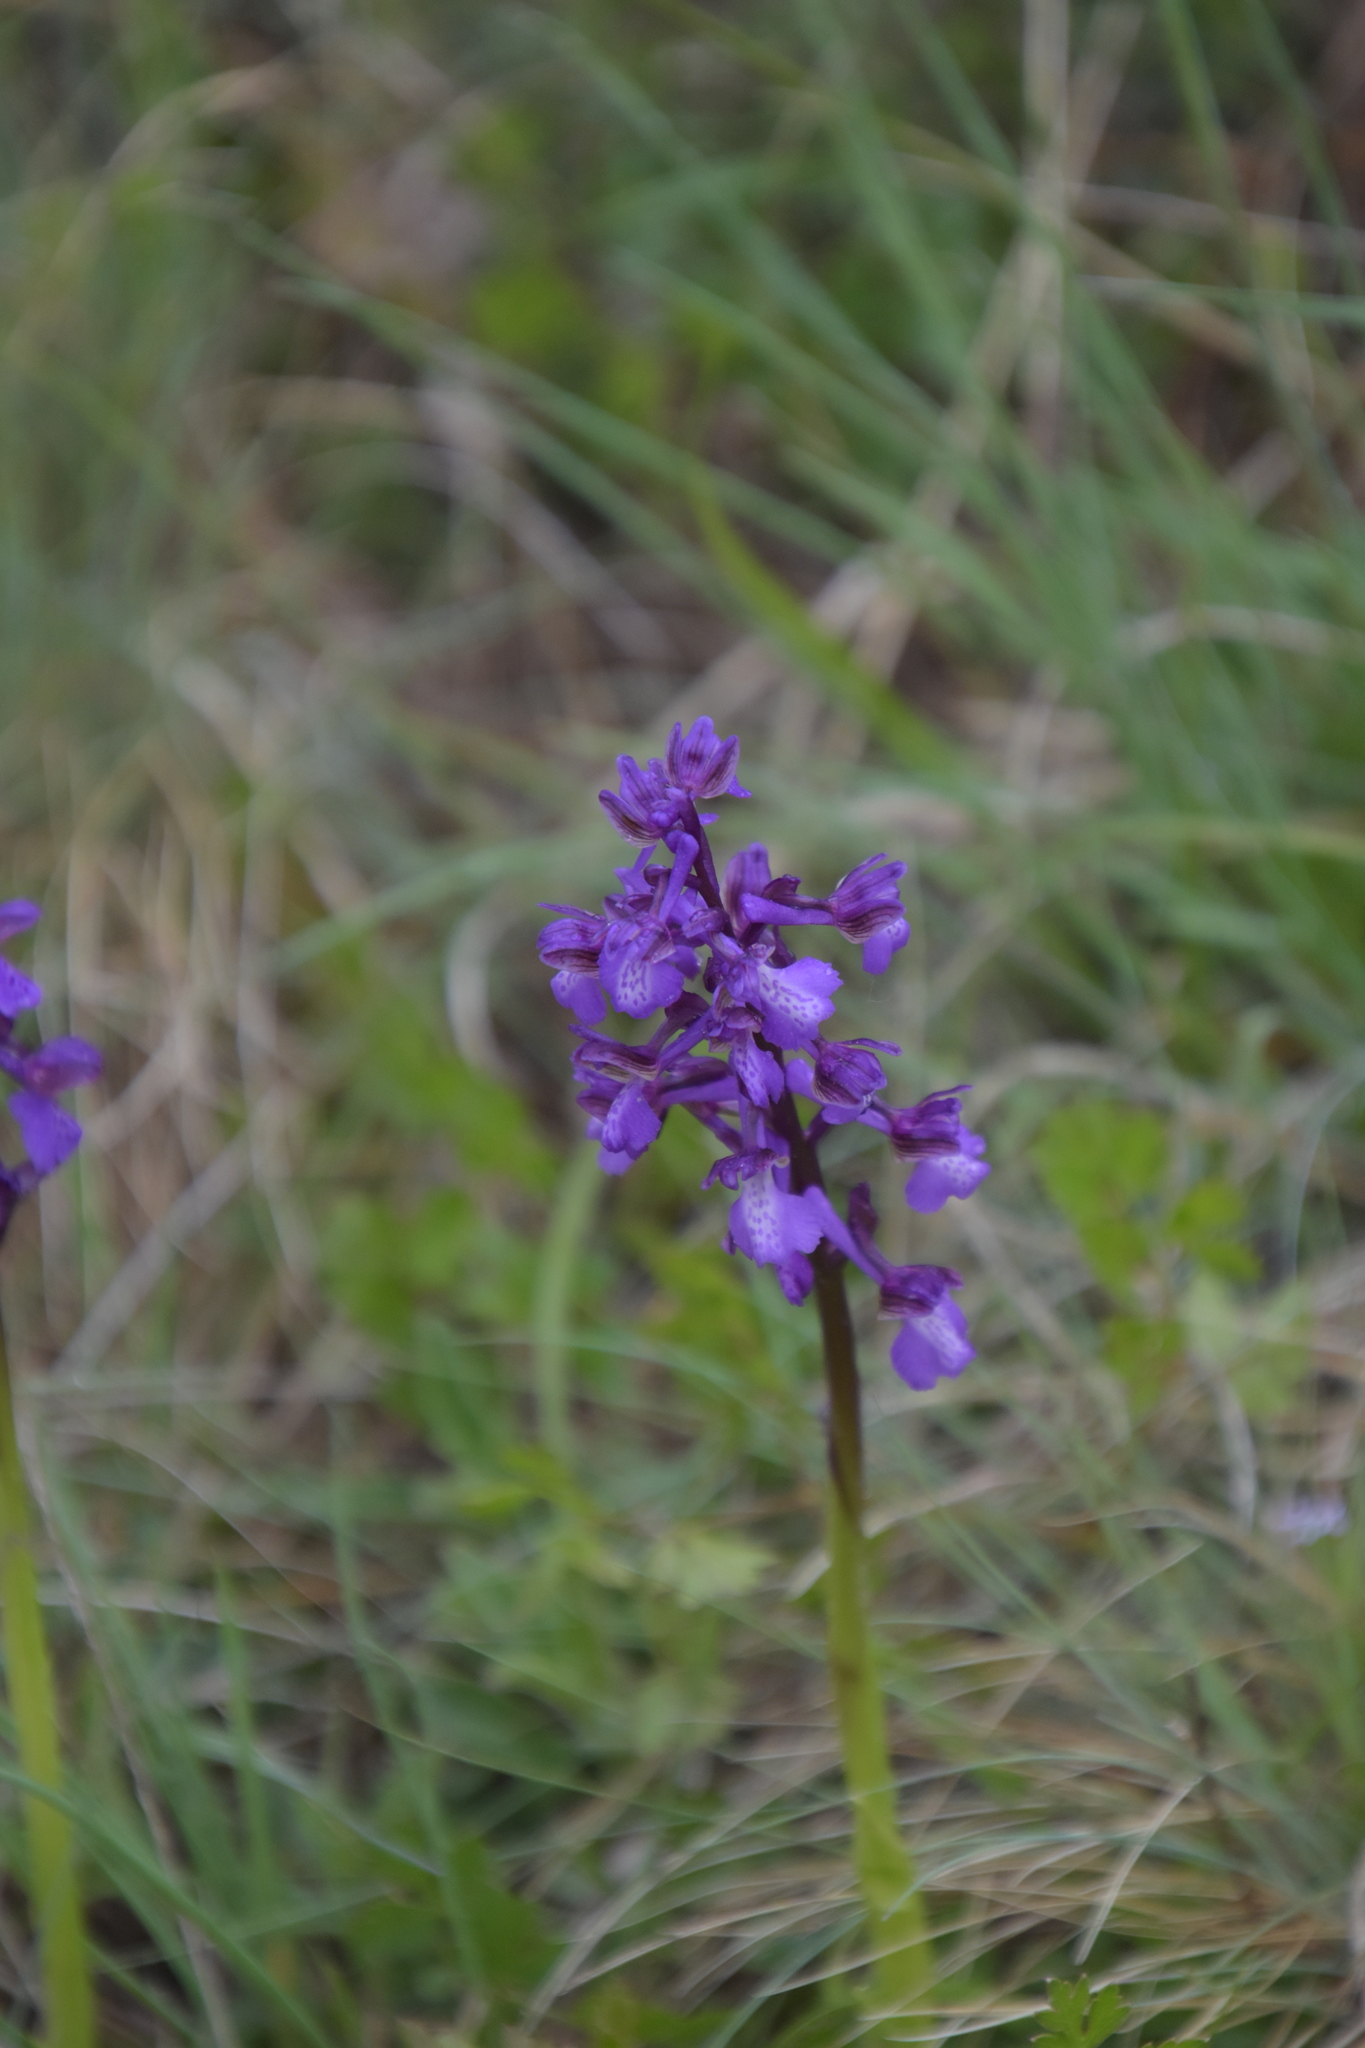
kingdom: Plantae
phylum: Tracheophyta
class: Liliopsida
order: Asparagales
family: Orchidaceae
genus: Anacamptis
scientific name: Anacamptis morio
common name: Green-winged orchid
